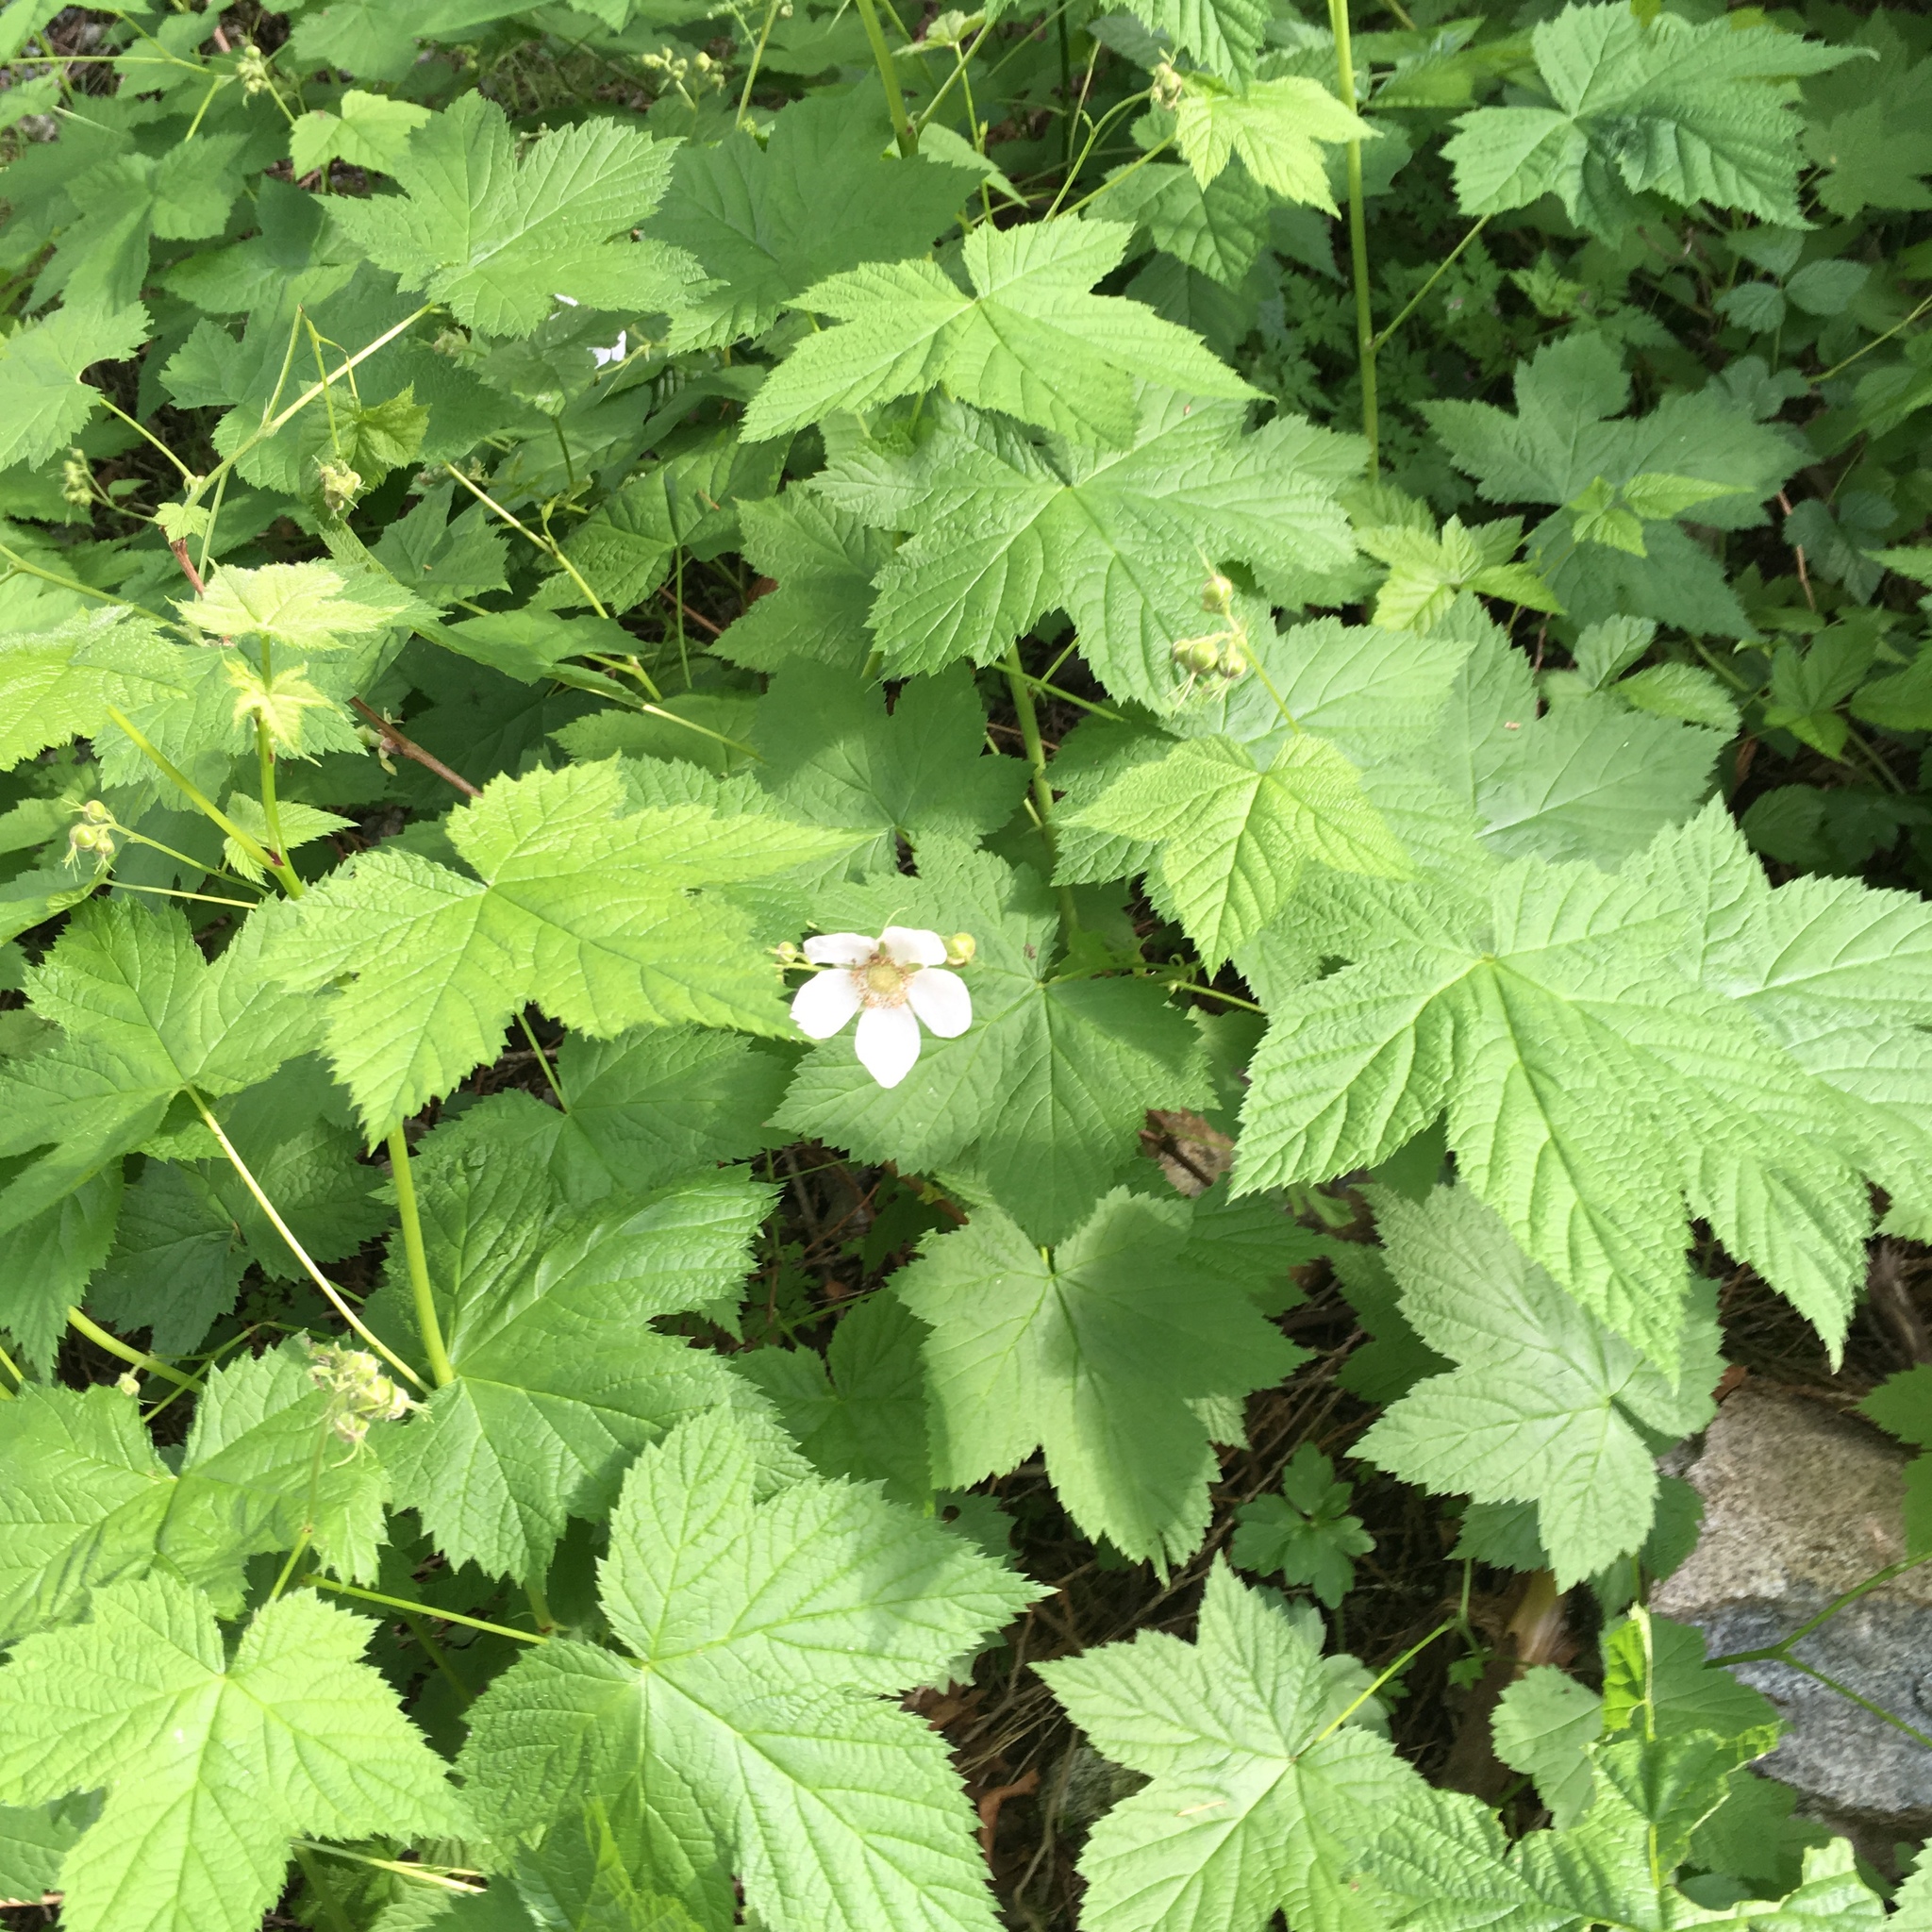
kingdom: Plantae
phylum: Tracheophyta
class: Magnoliopsida
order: Rosales
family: Rosaceae
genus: Rubus
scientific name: Rubus parviflorus
